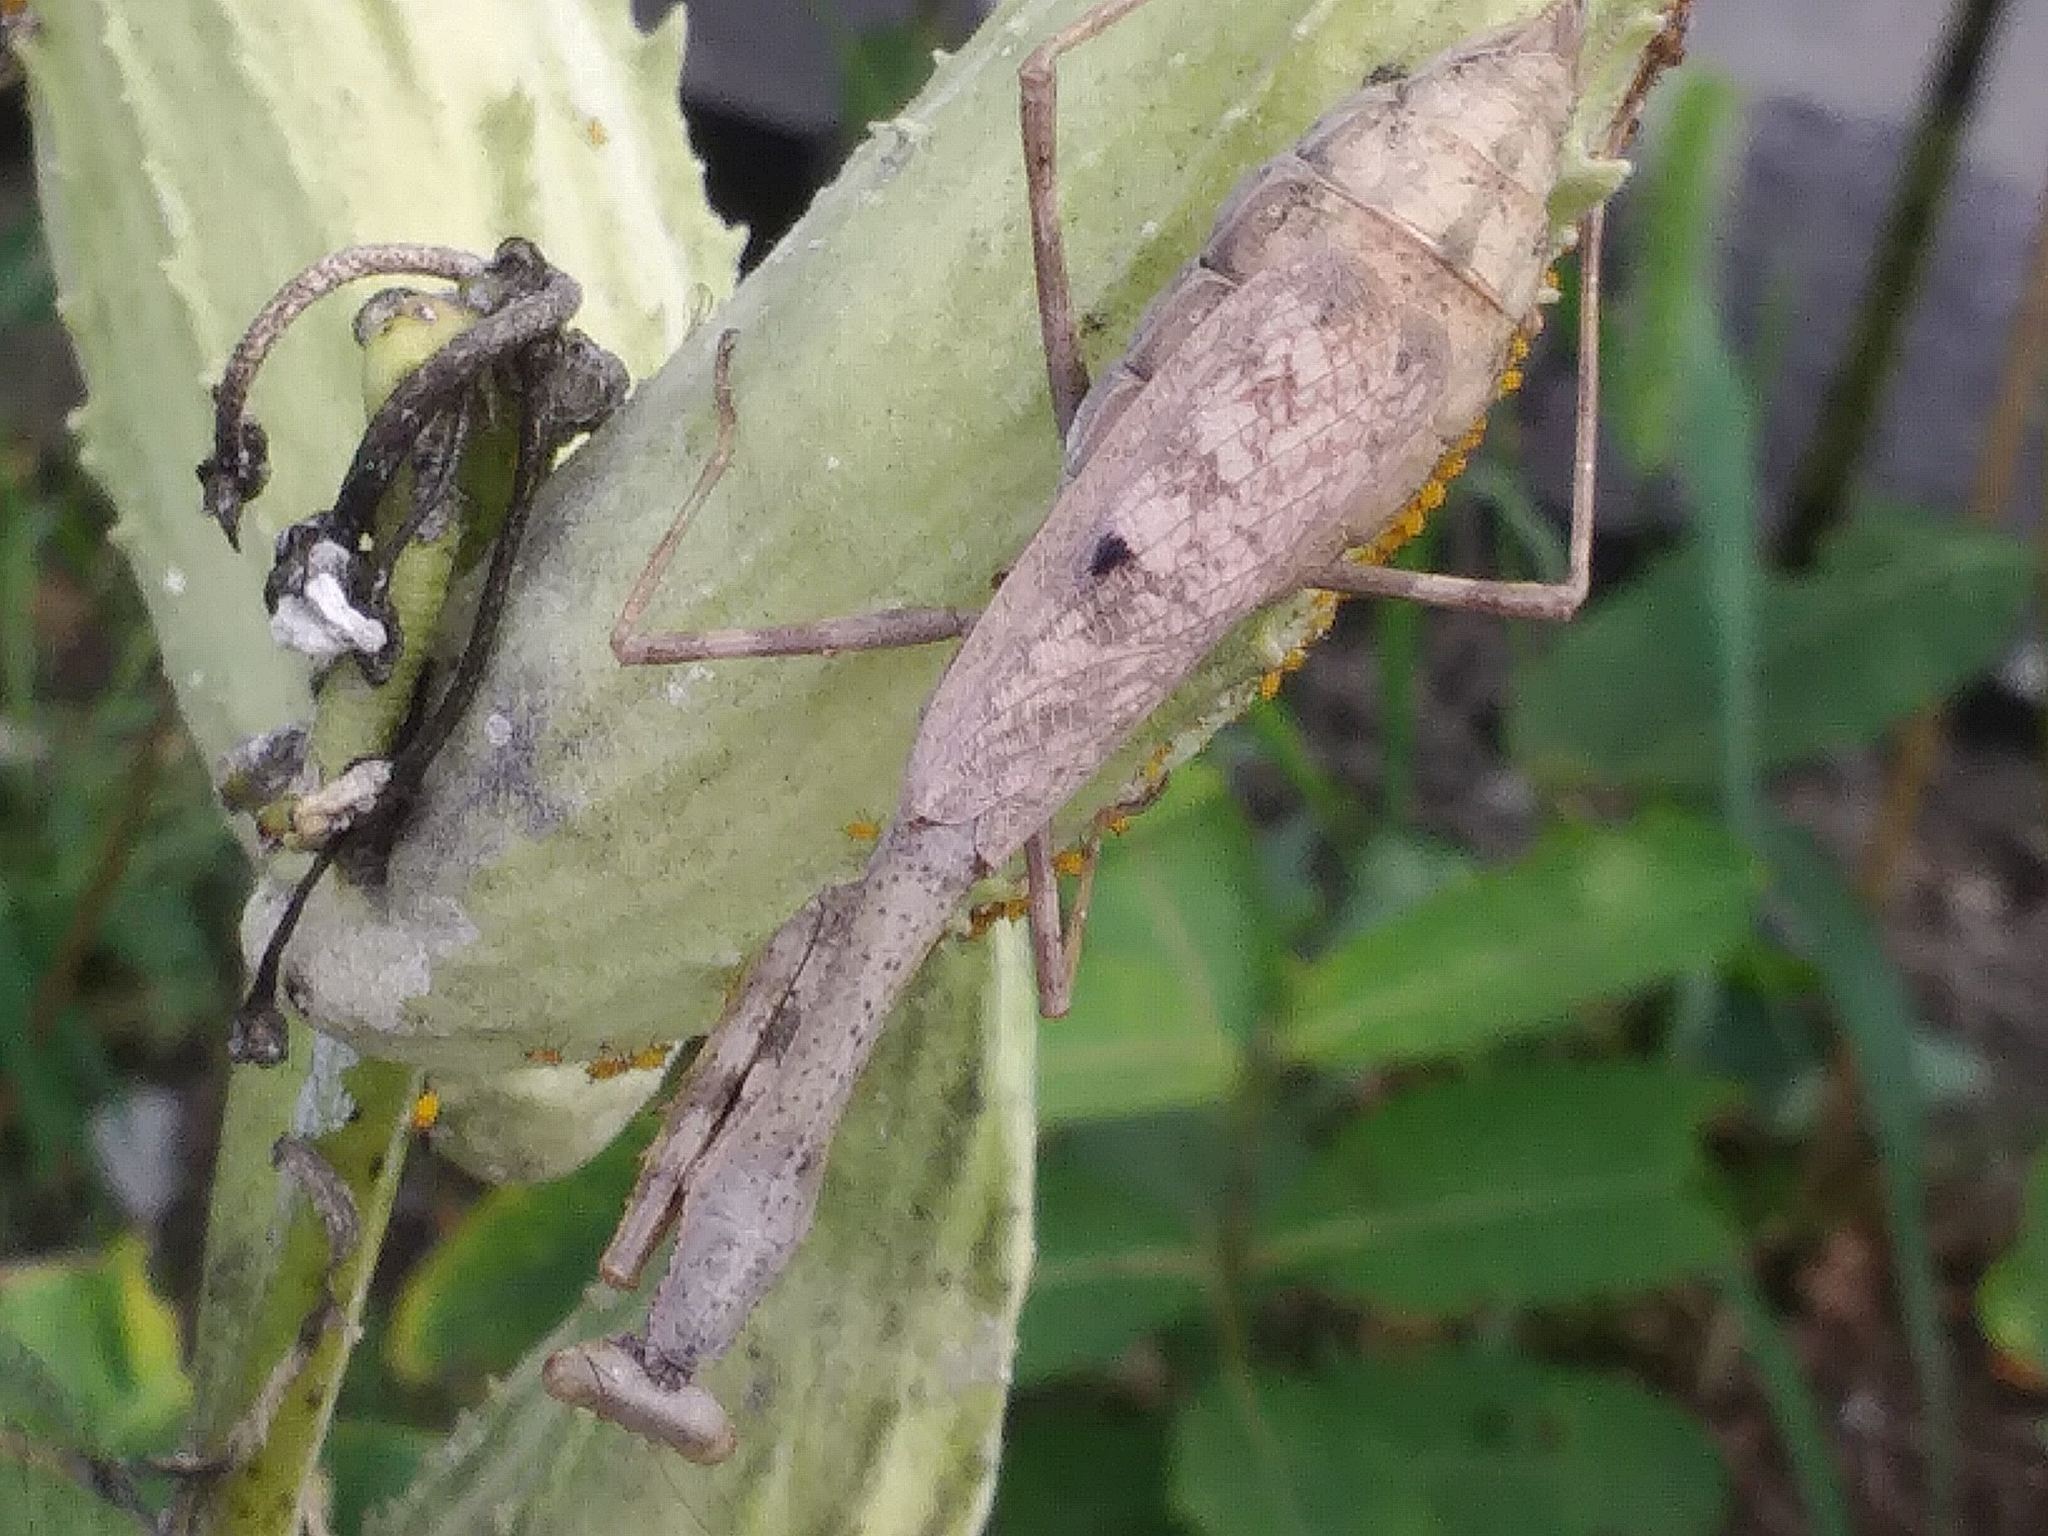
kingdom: Animalia
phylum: Arthropoda
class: Insecta
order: Mantodea
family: Mantidae
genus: Stagmomantis
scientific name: Stagmomantis carolina
